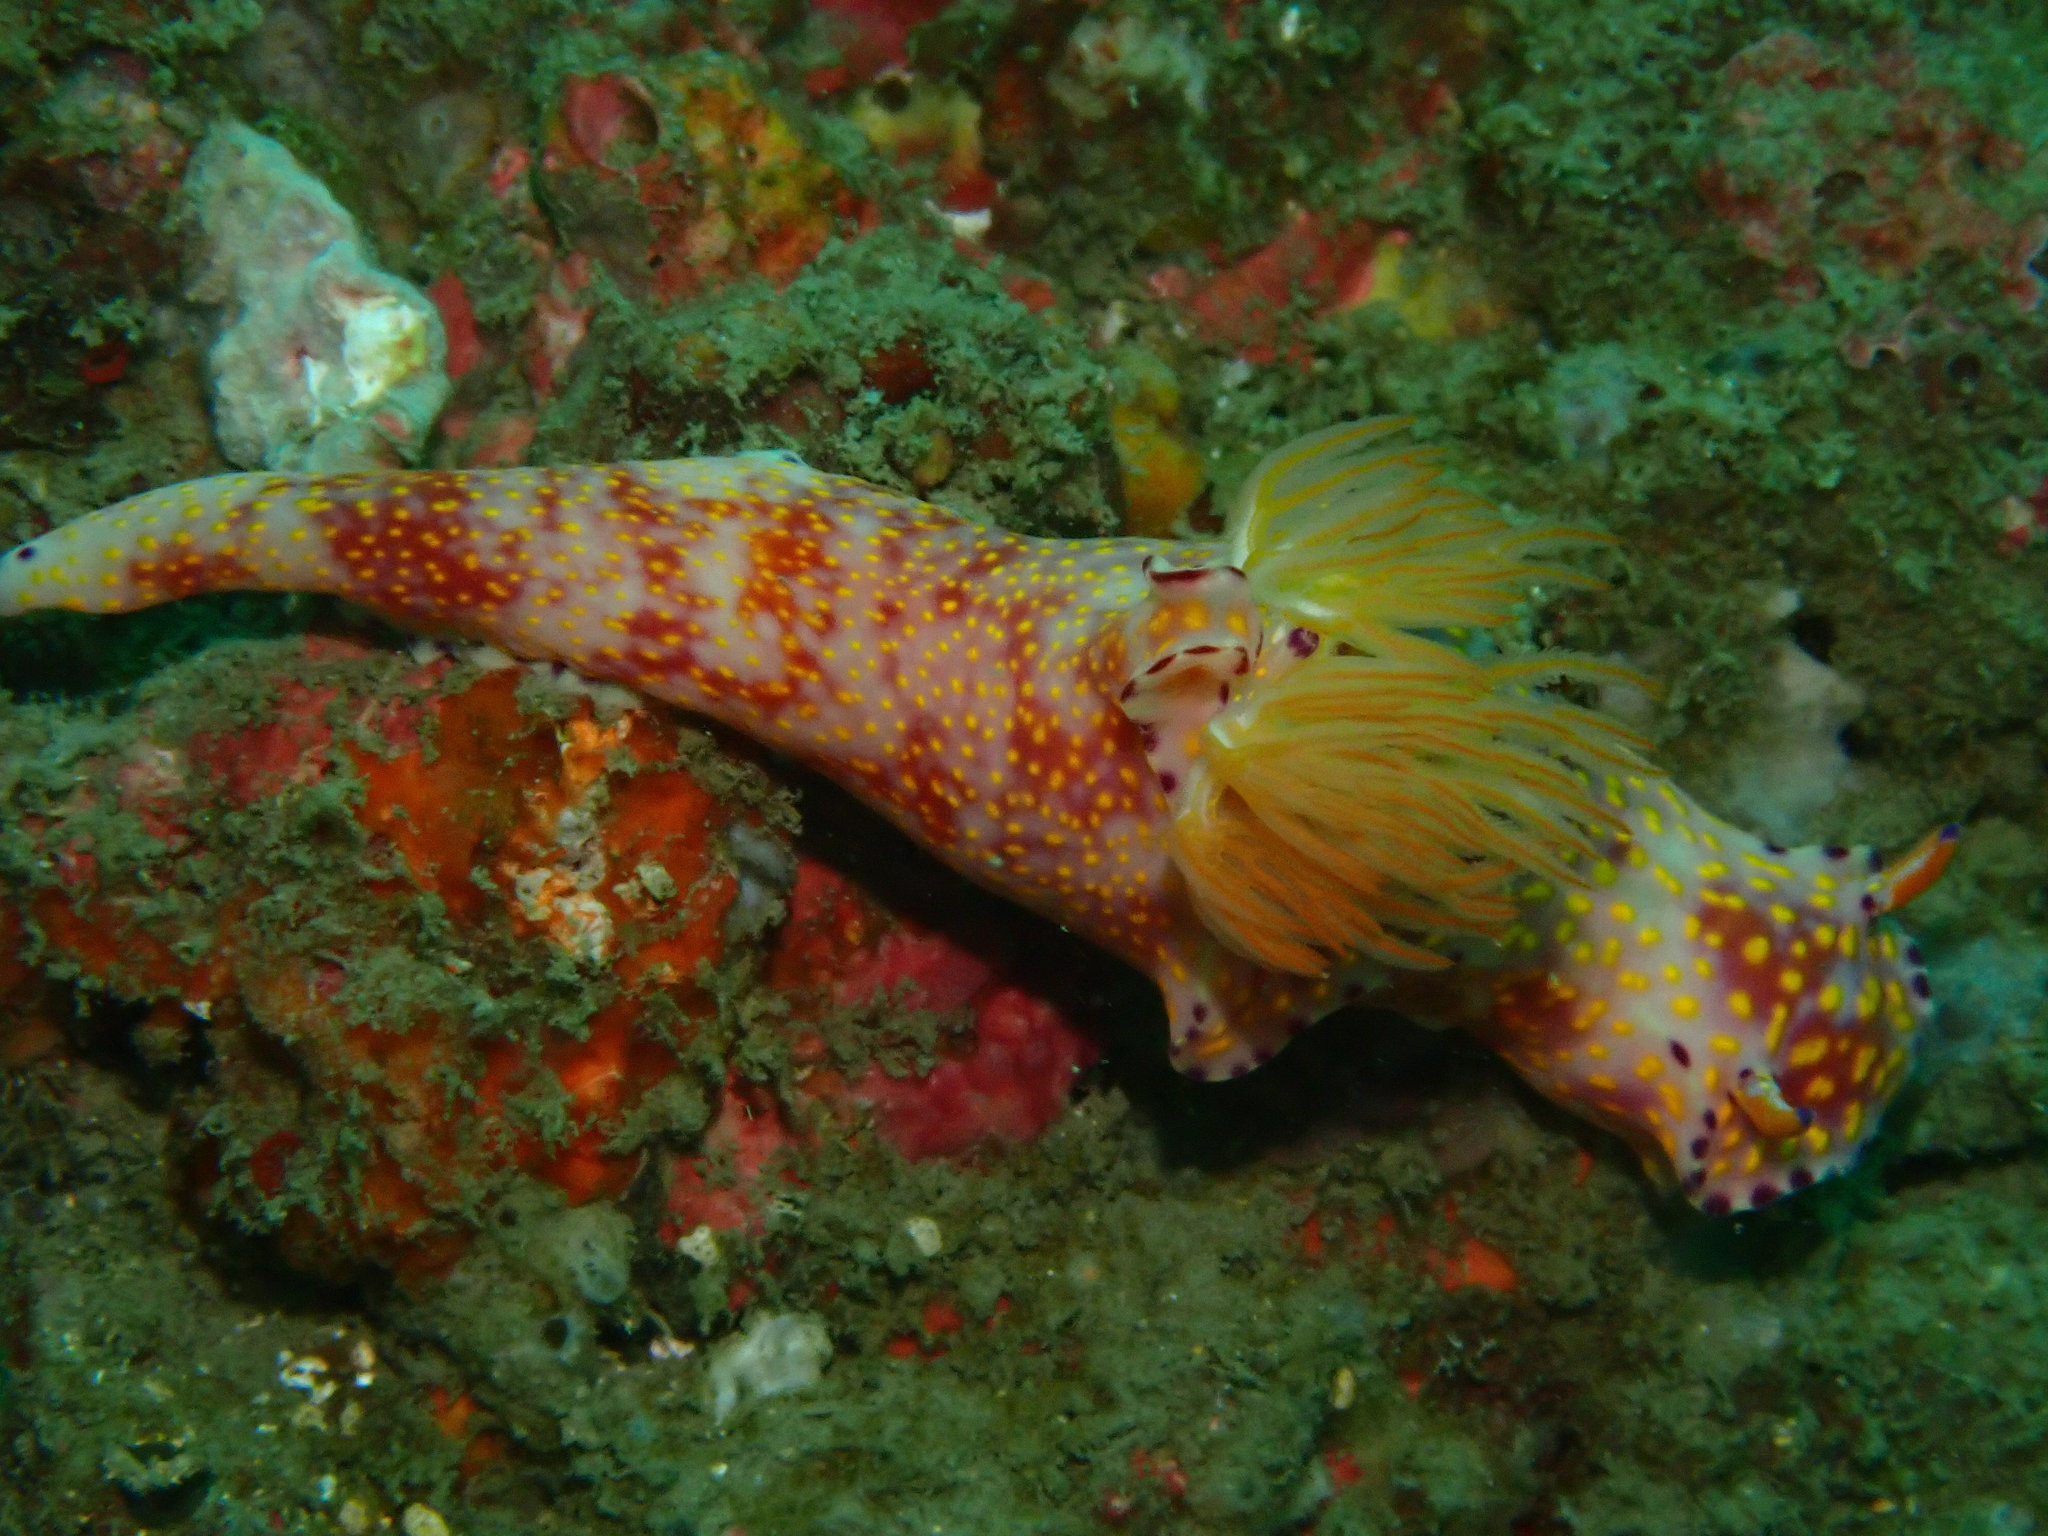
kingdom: Animalia
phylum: Mollusca
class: Gastropoda
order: Nudibranchia
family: Chromodorididae
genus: Ceratosoma
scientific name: Ceratosoma gracillimum
